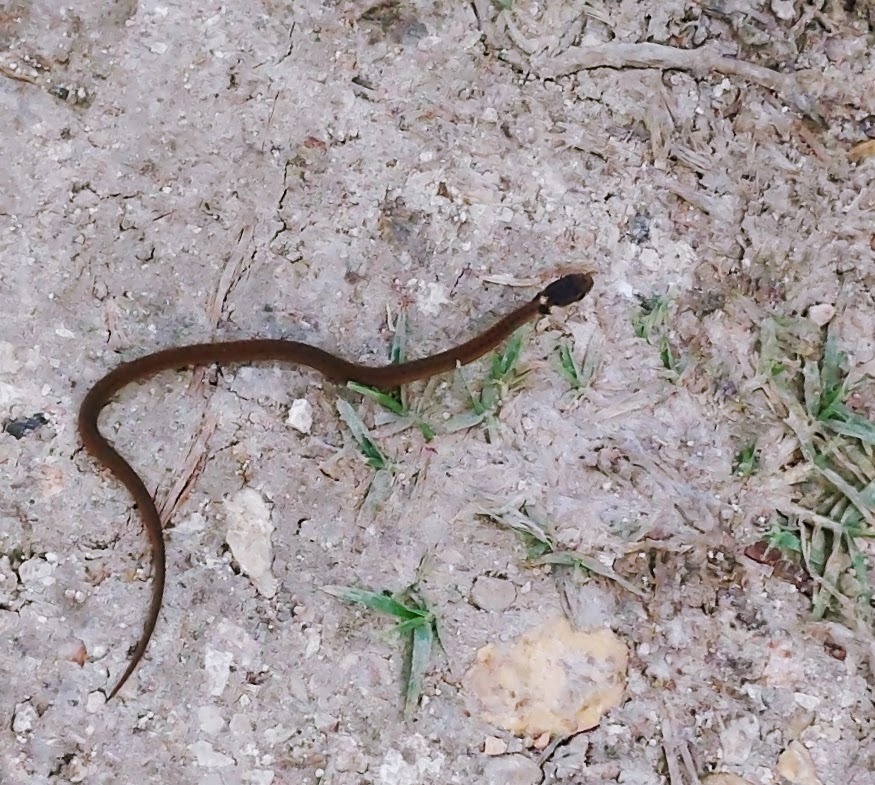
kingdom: Animalia
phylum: Chordata
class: Squamata
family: Colubridae
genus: Storeria
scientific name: Storeria dekayi
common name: (dekay’s) brown snake
